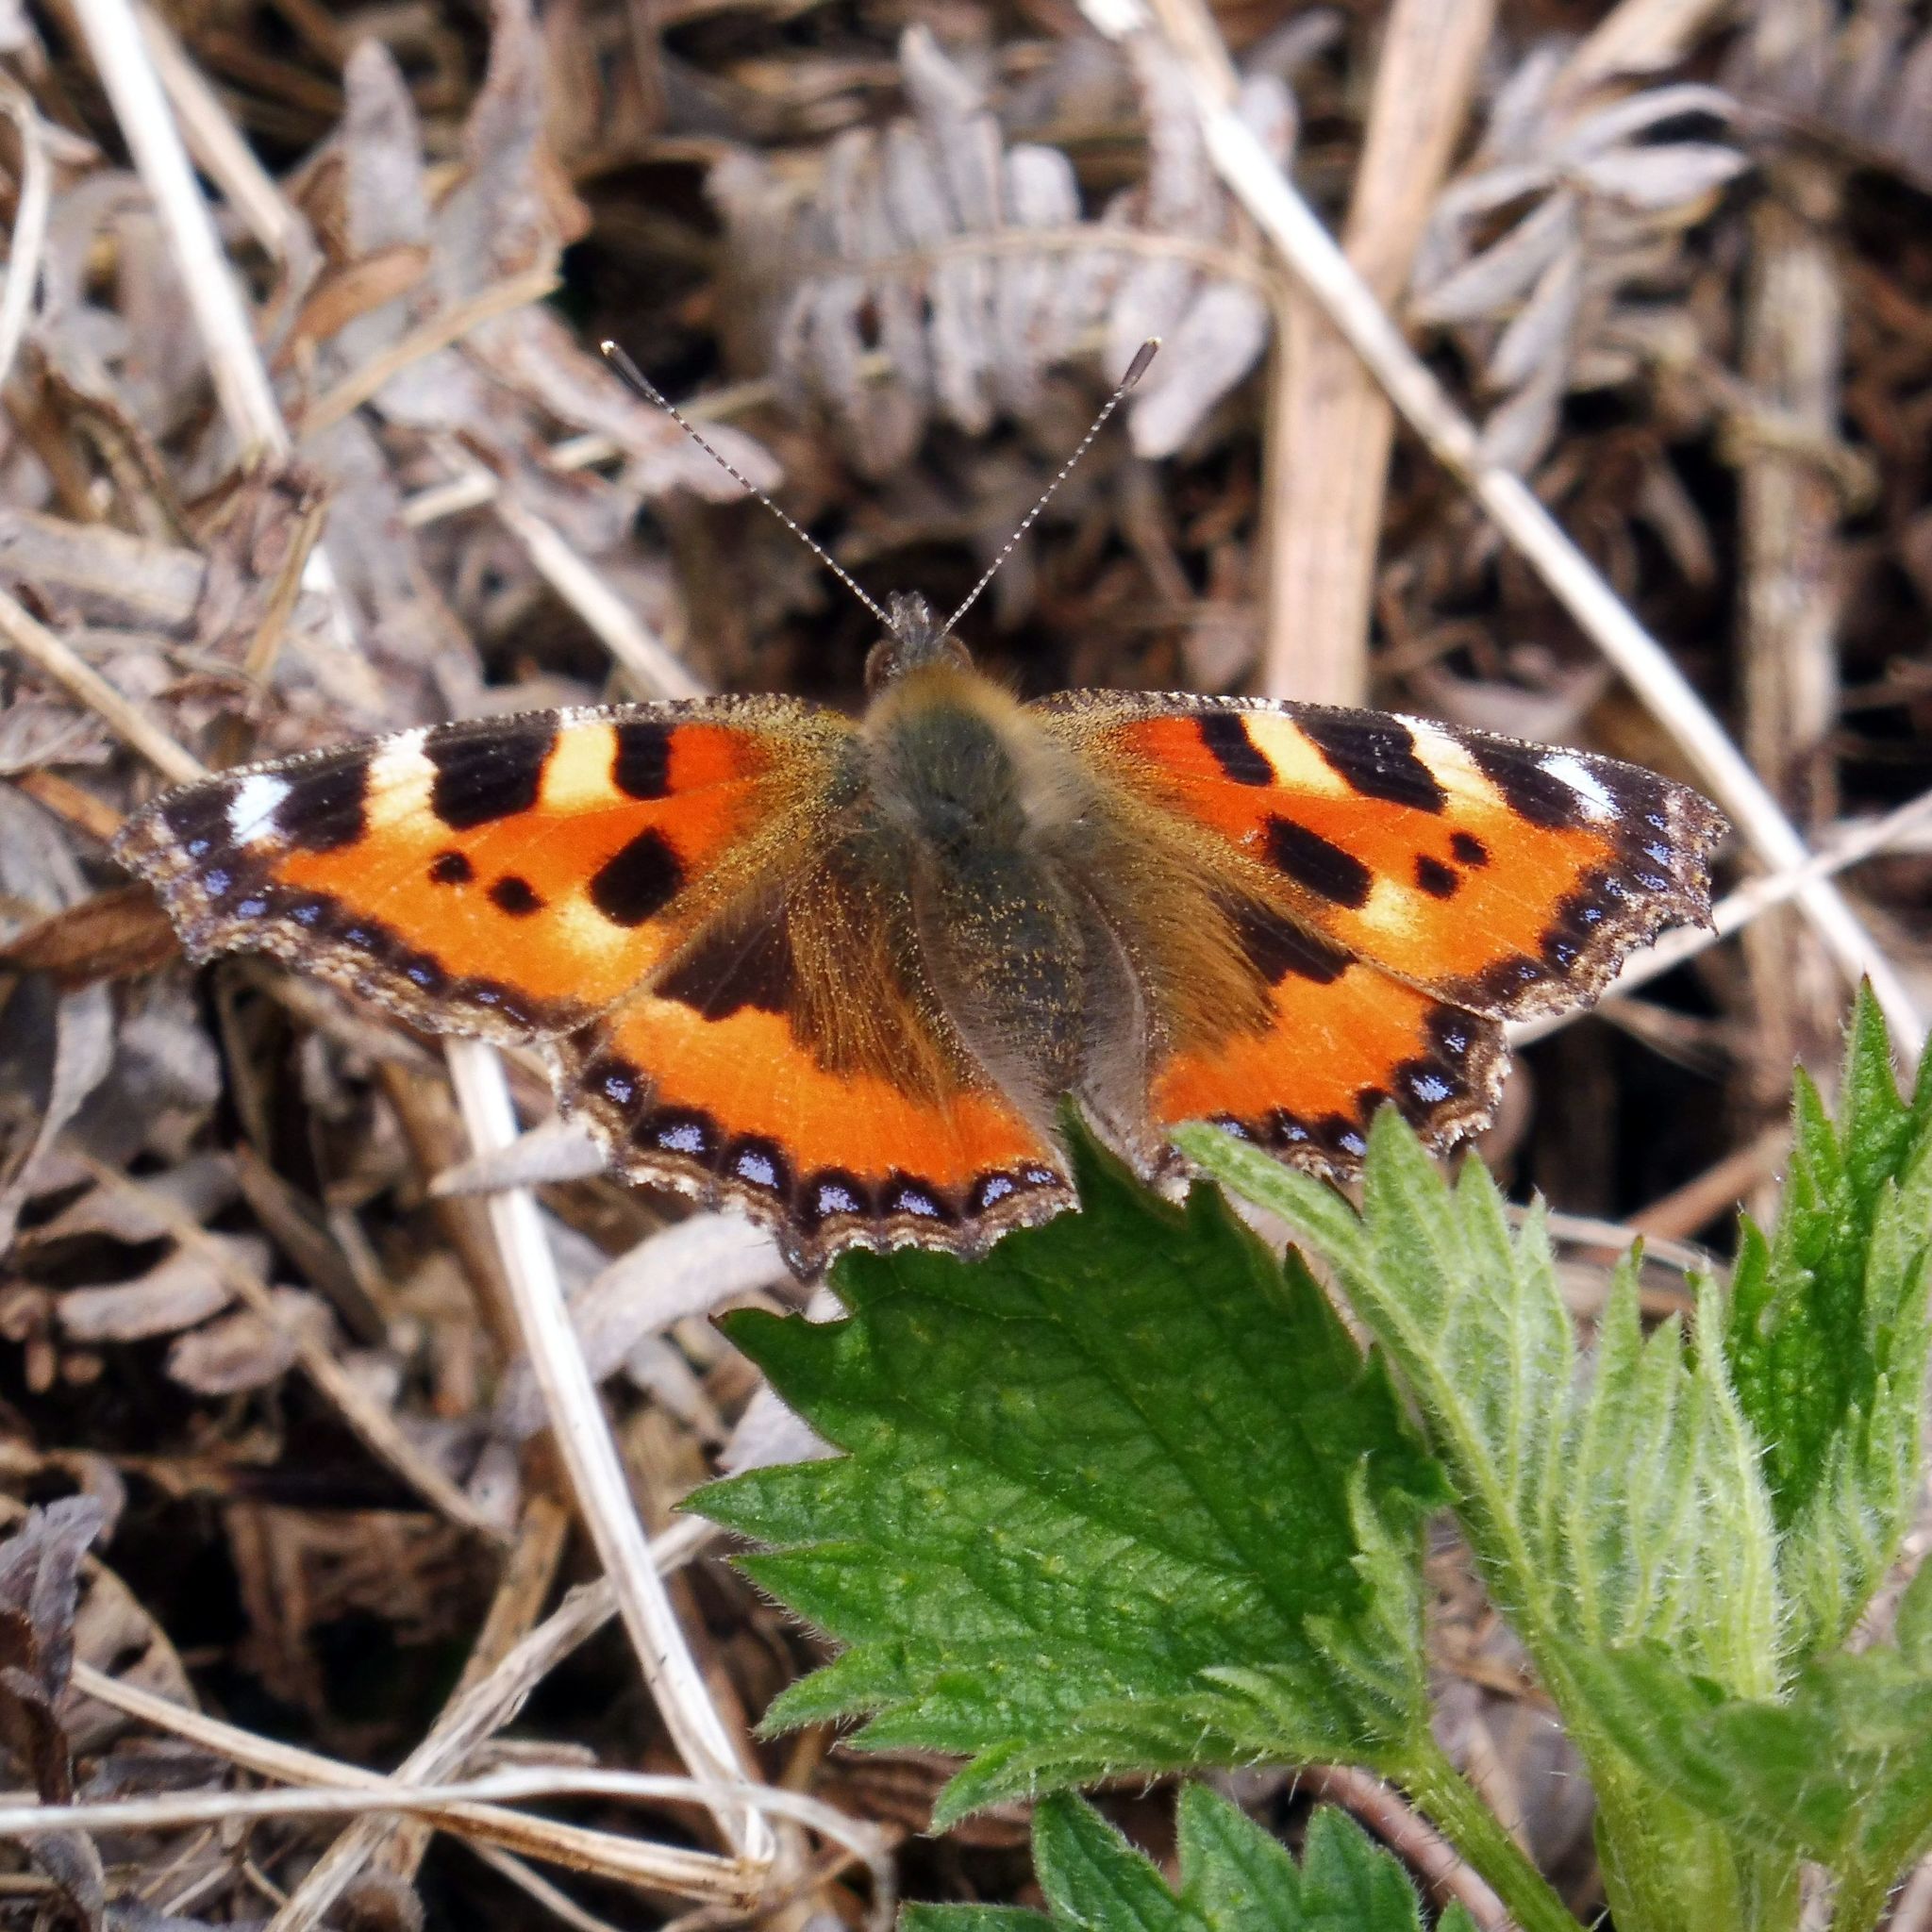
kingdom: Animalia
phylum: Arthropoda
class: Insecta
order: Lepidoptera
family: Nymphalidae
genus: Aglais
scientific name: Aglais urticae
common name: Small tortoiseshell
